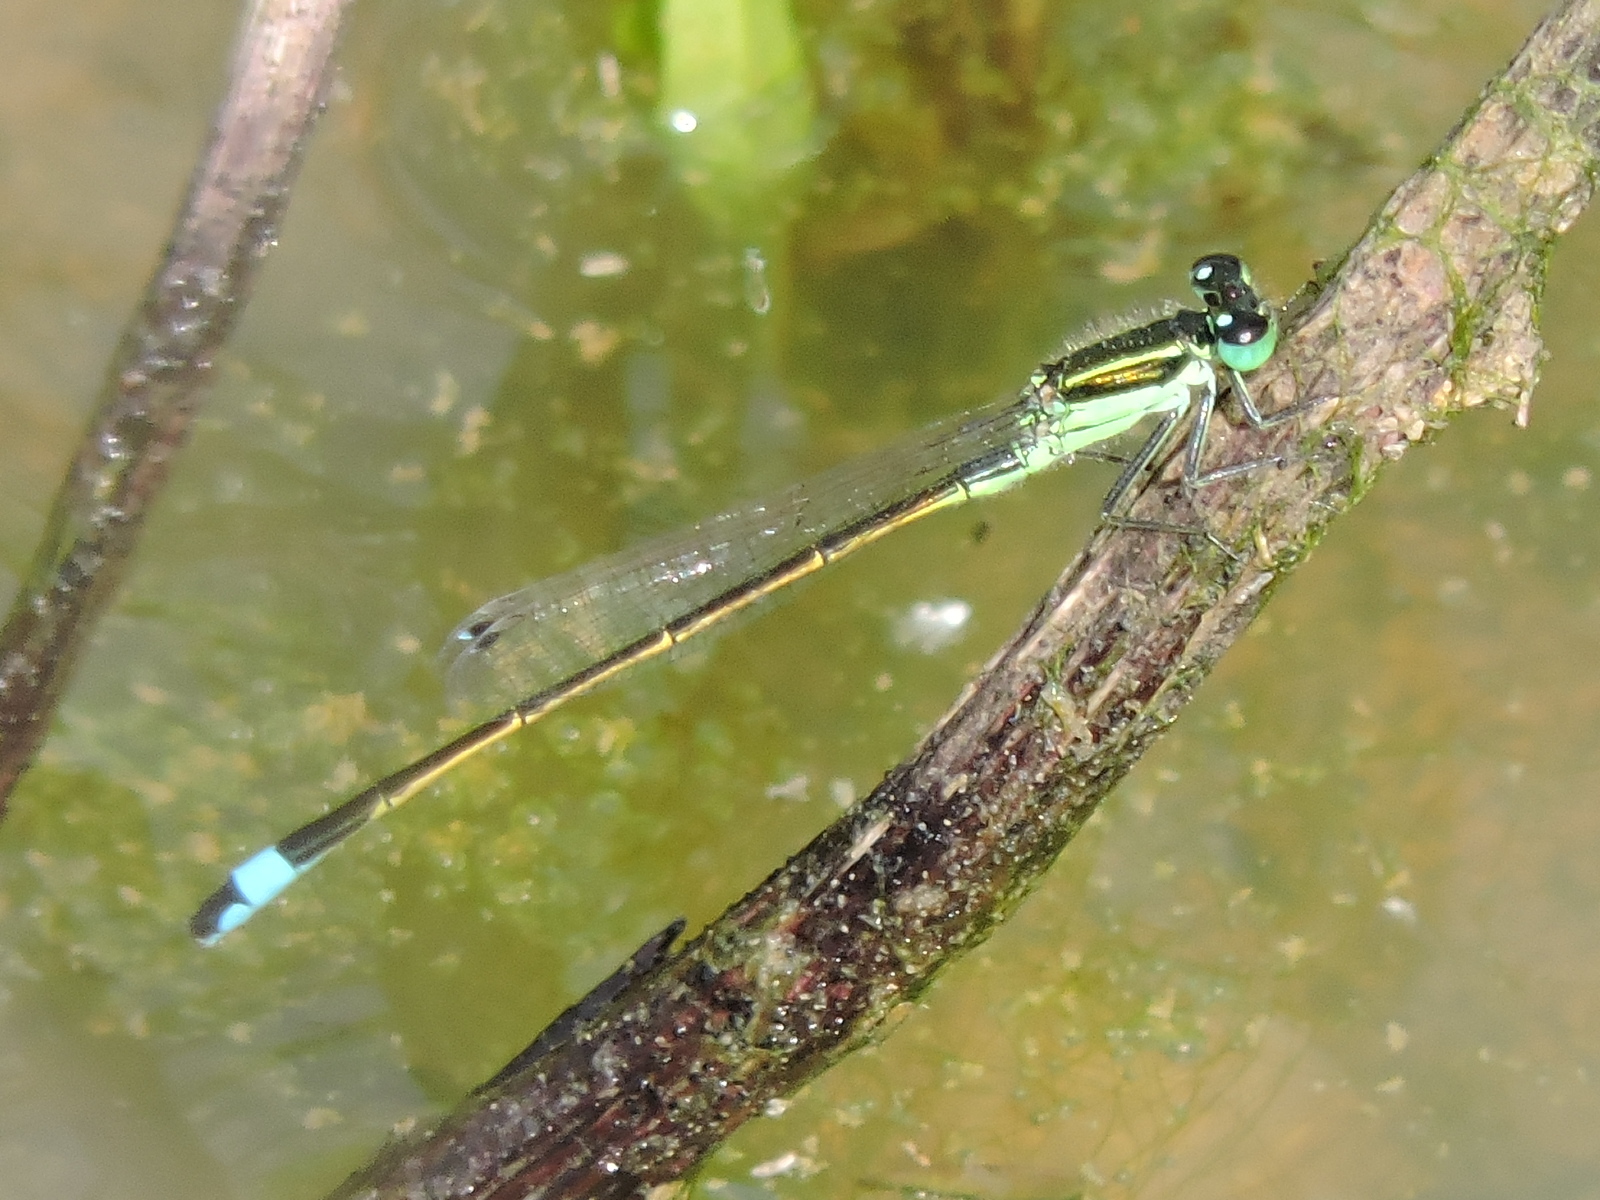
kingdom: Animalia
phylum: Arthropoda
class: Insecta
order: Odonata
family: Coenagrionidae
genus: Ischnura
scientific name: Ischnura ramburii
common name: Rambur's forktail
